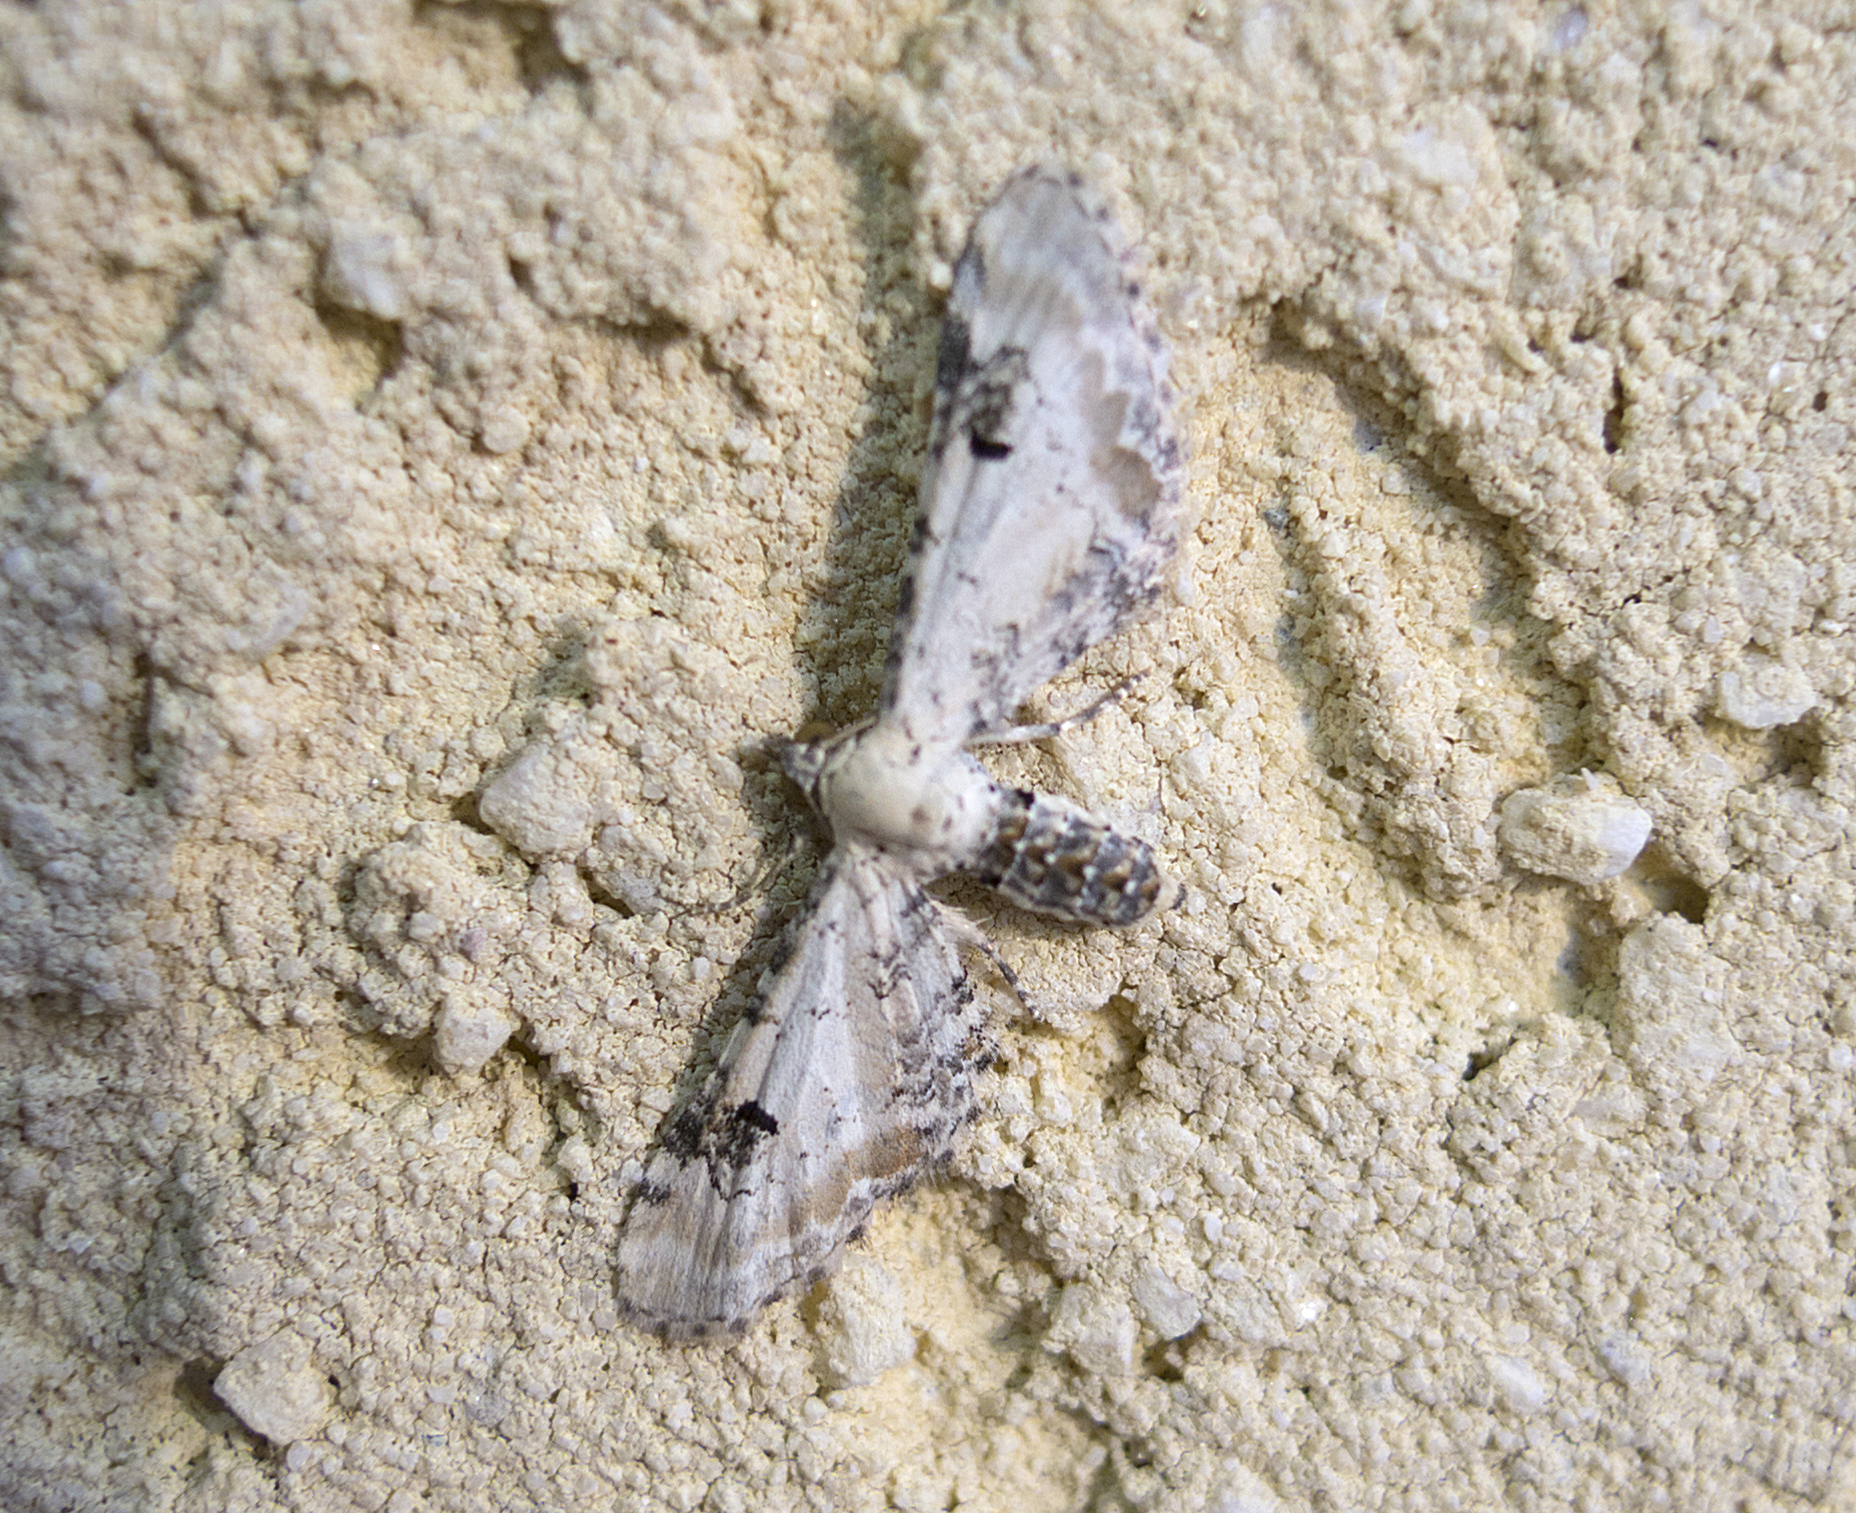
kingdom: Animalia
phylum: Arthropoda
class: Insecta
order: Lepidoptera
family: Geometridae
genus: Eupithecia
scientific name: Eupithecia centaureata
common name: Lime-speck pug
